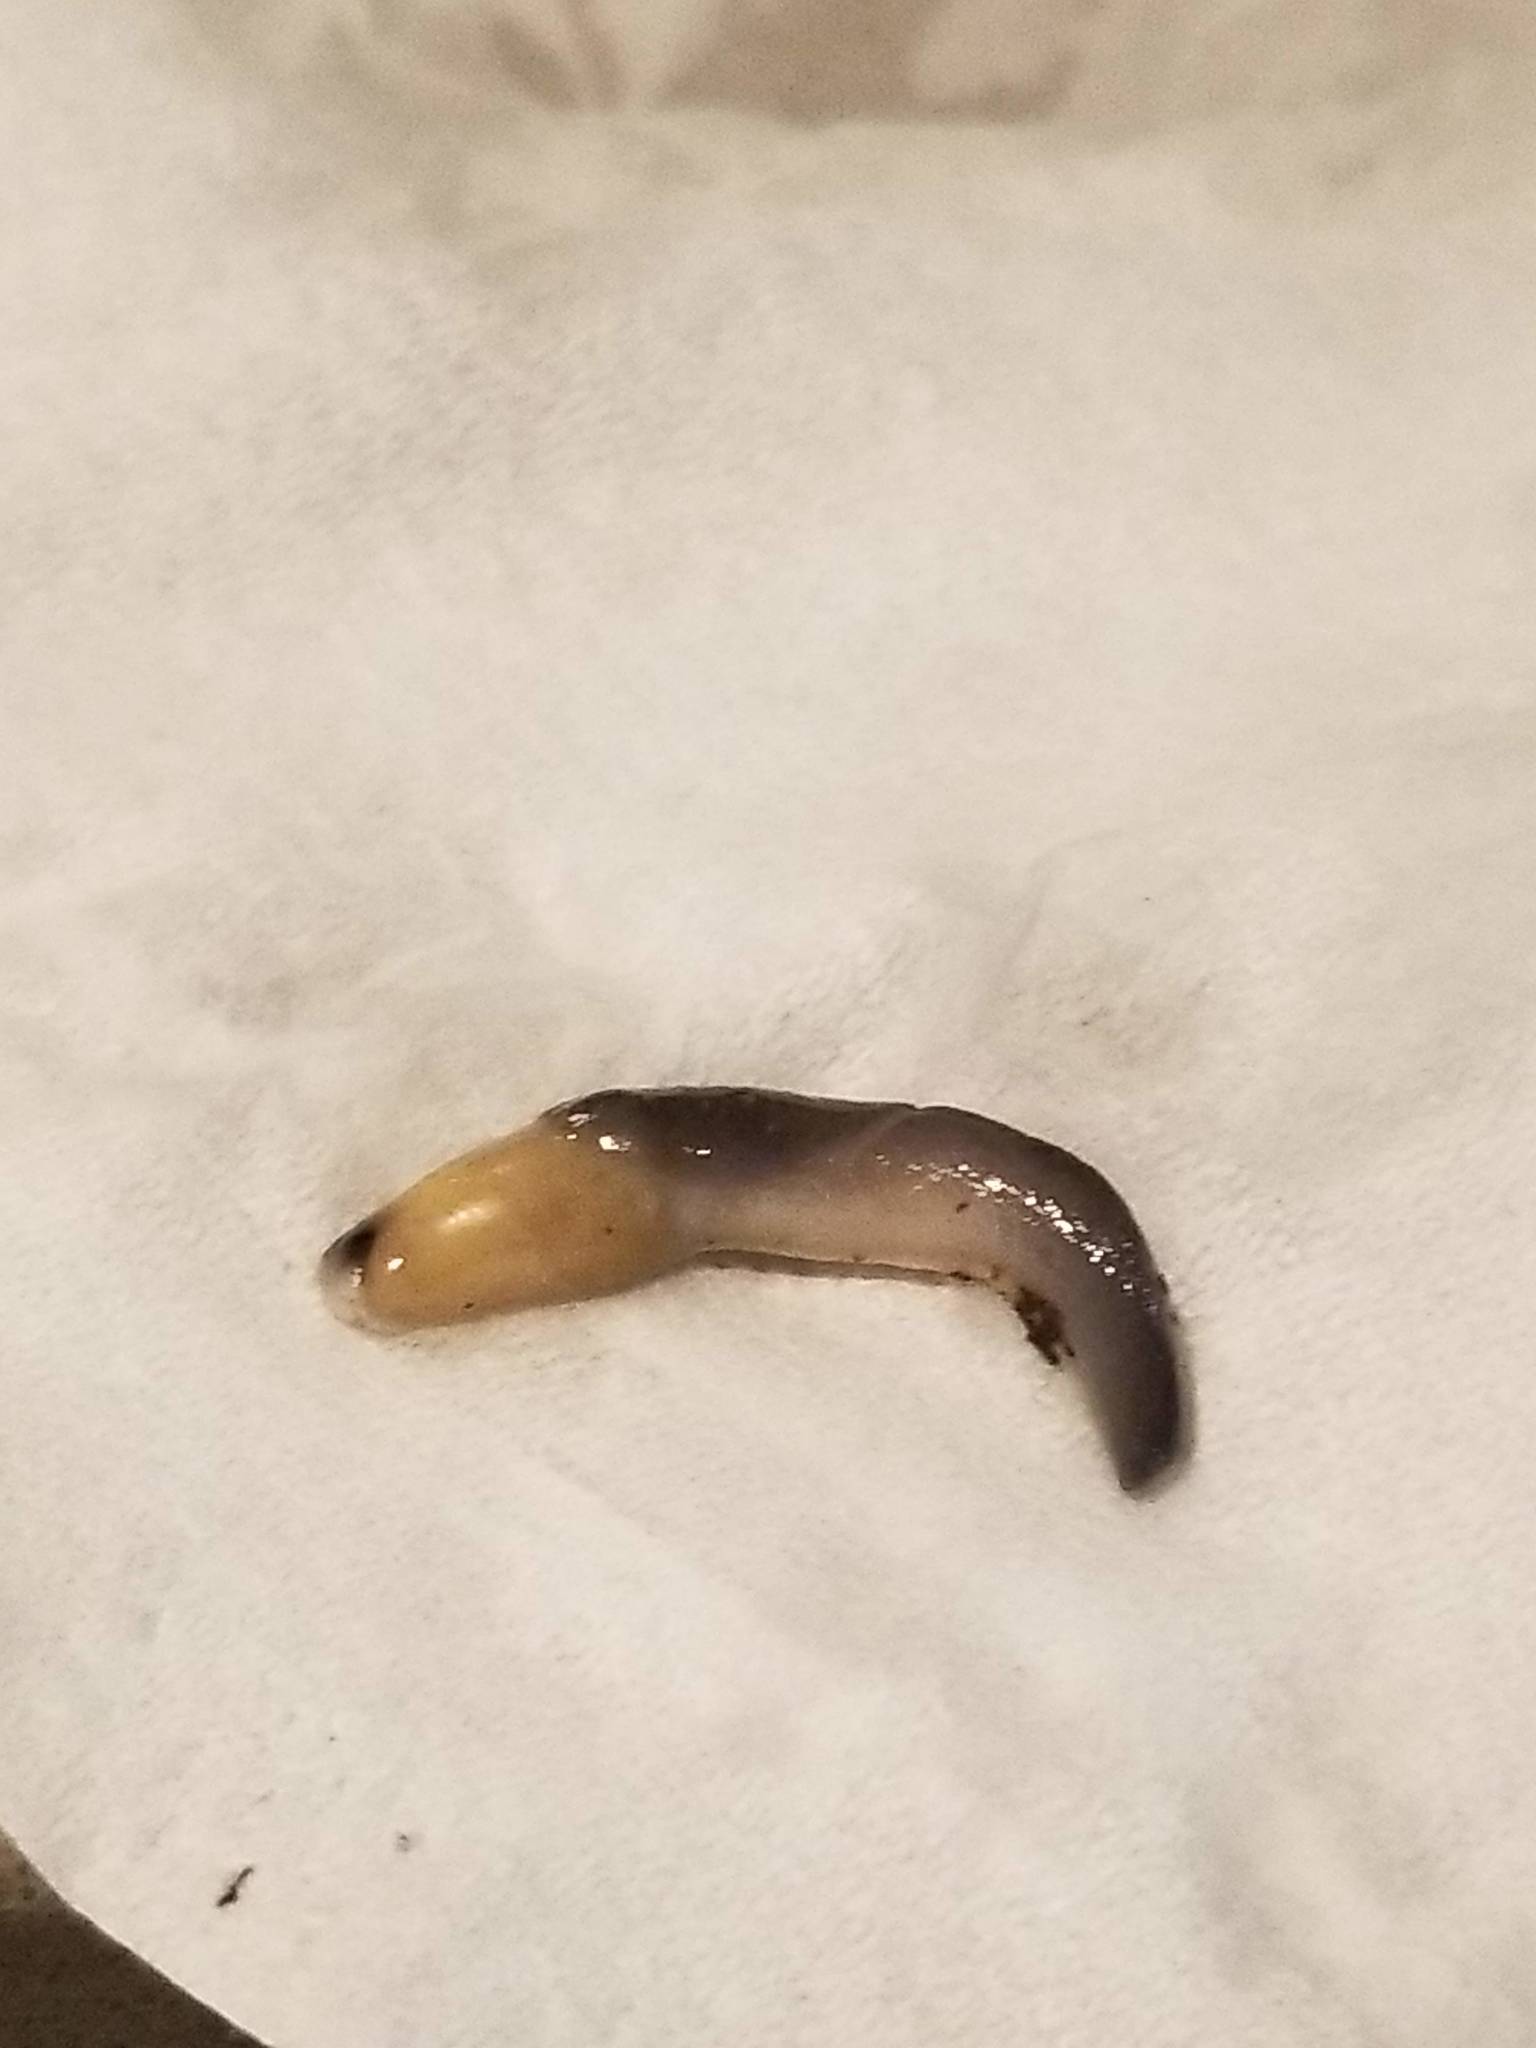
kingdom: Animalia
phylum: Mollusca
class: Gastropoda
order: Stylommatophora
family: Boettgerillidae
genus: Boettgerilla
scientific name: Boettgerilla pallens
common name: Worm slug
